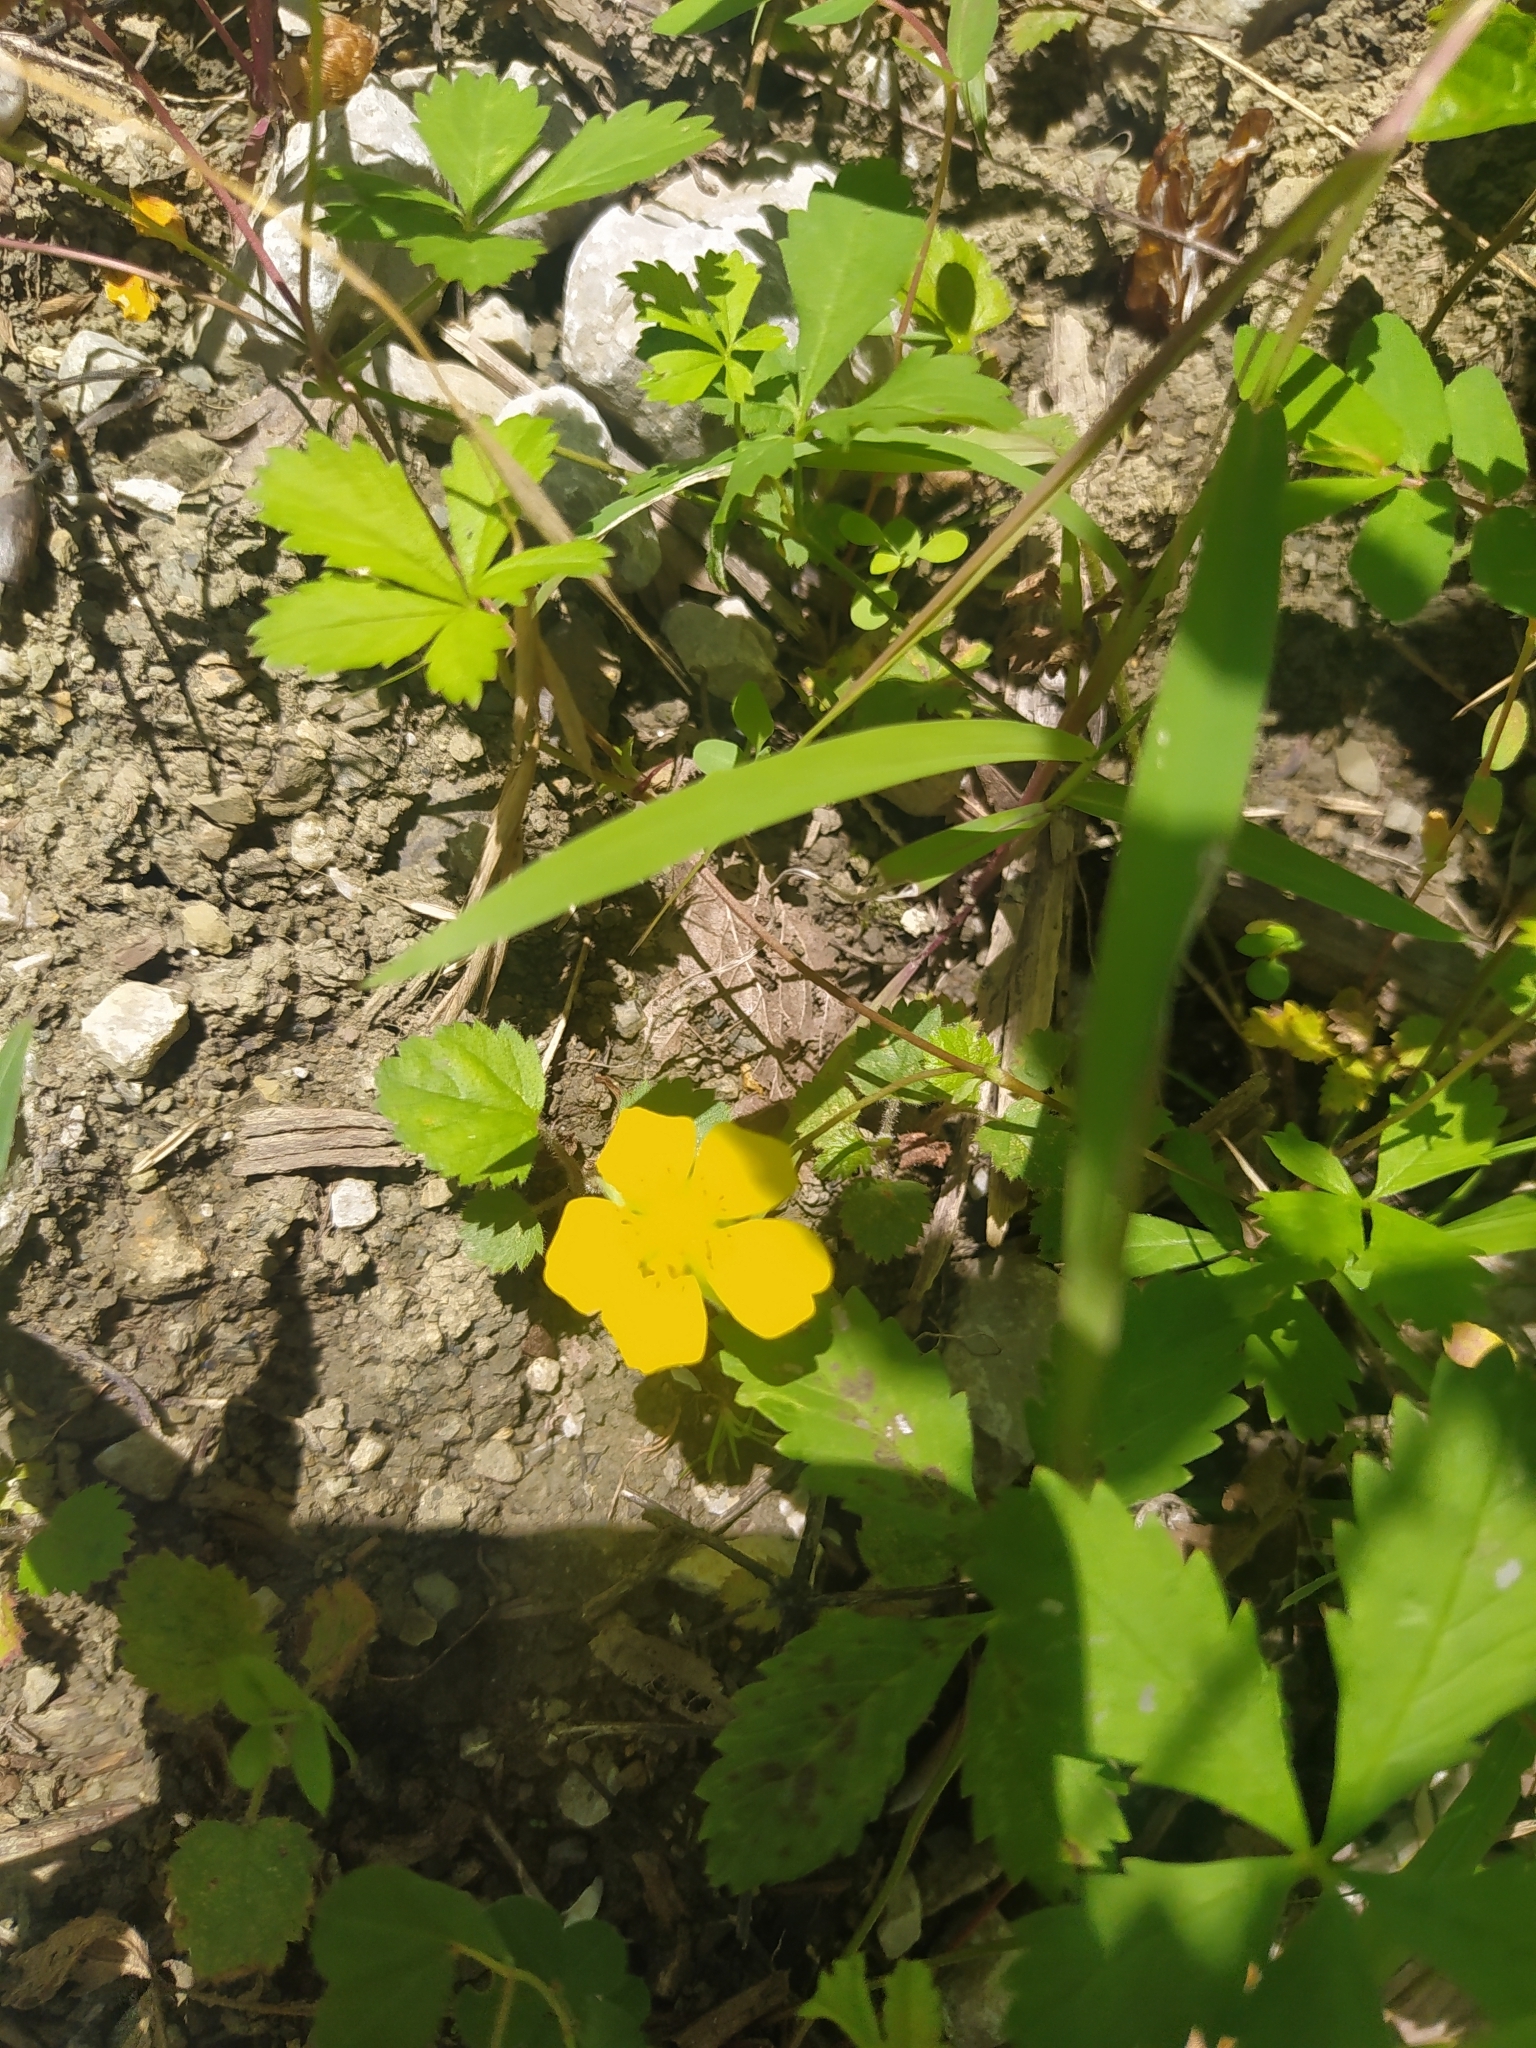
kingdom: Plantae
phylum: Tracheophyta
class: Magnoliopsida
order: Rosales
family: Rosaceae
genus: Potentilla
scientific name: Potentilla reptans
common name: Creeping cinquefoil
